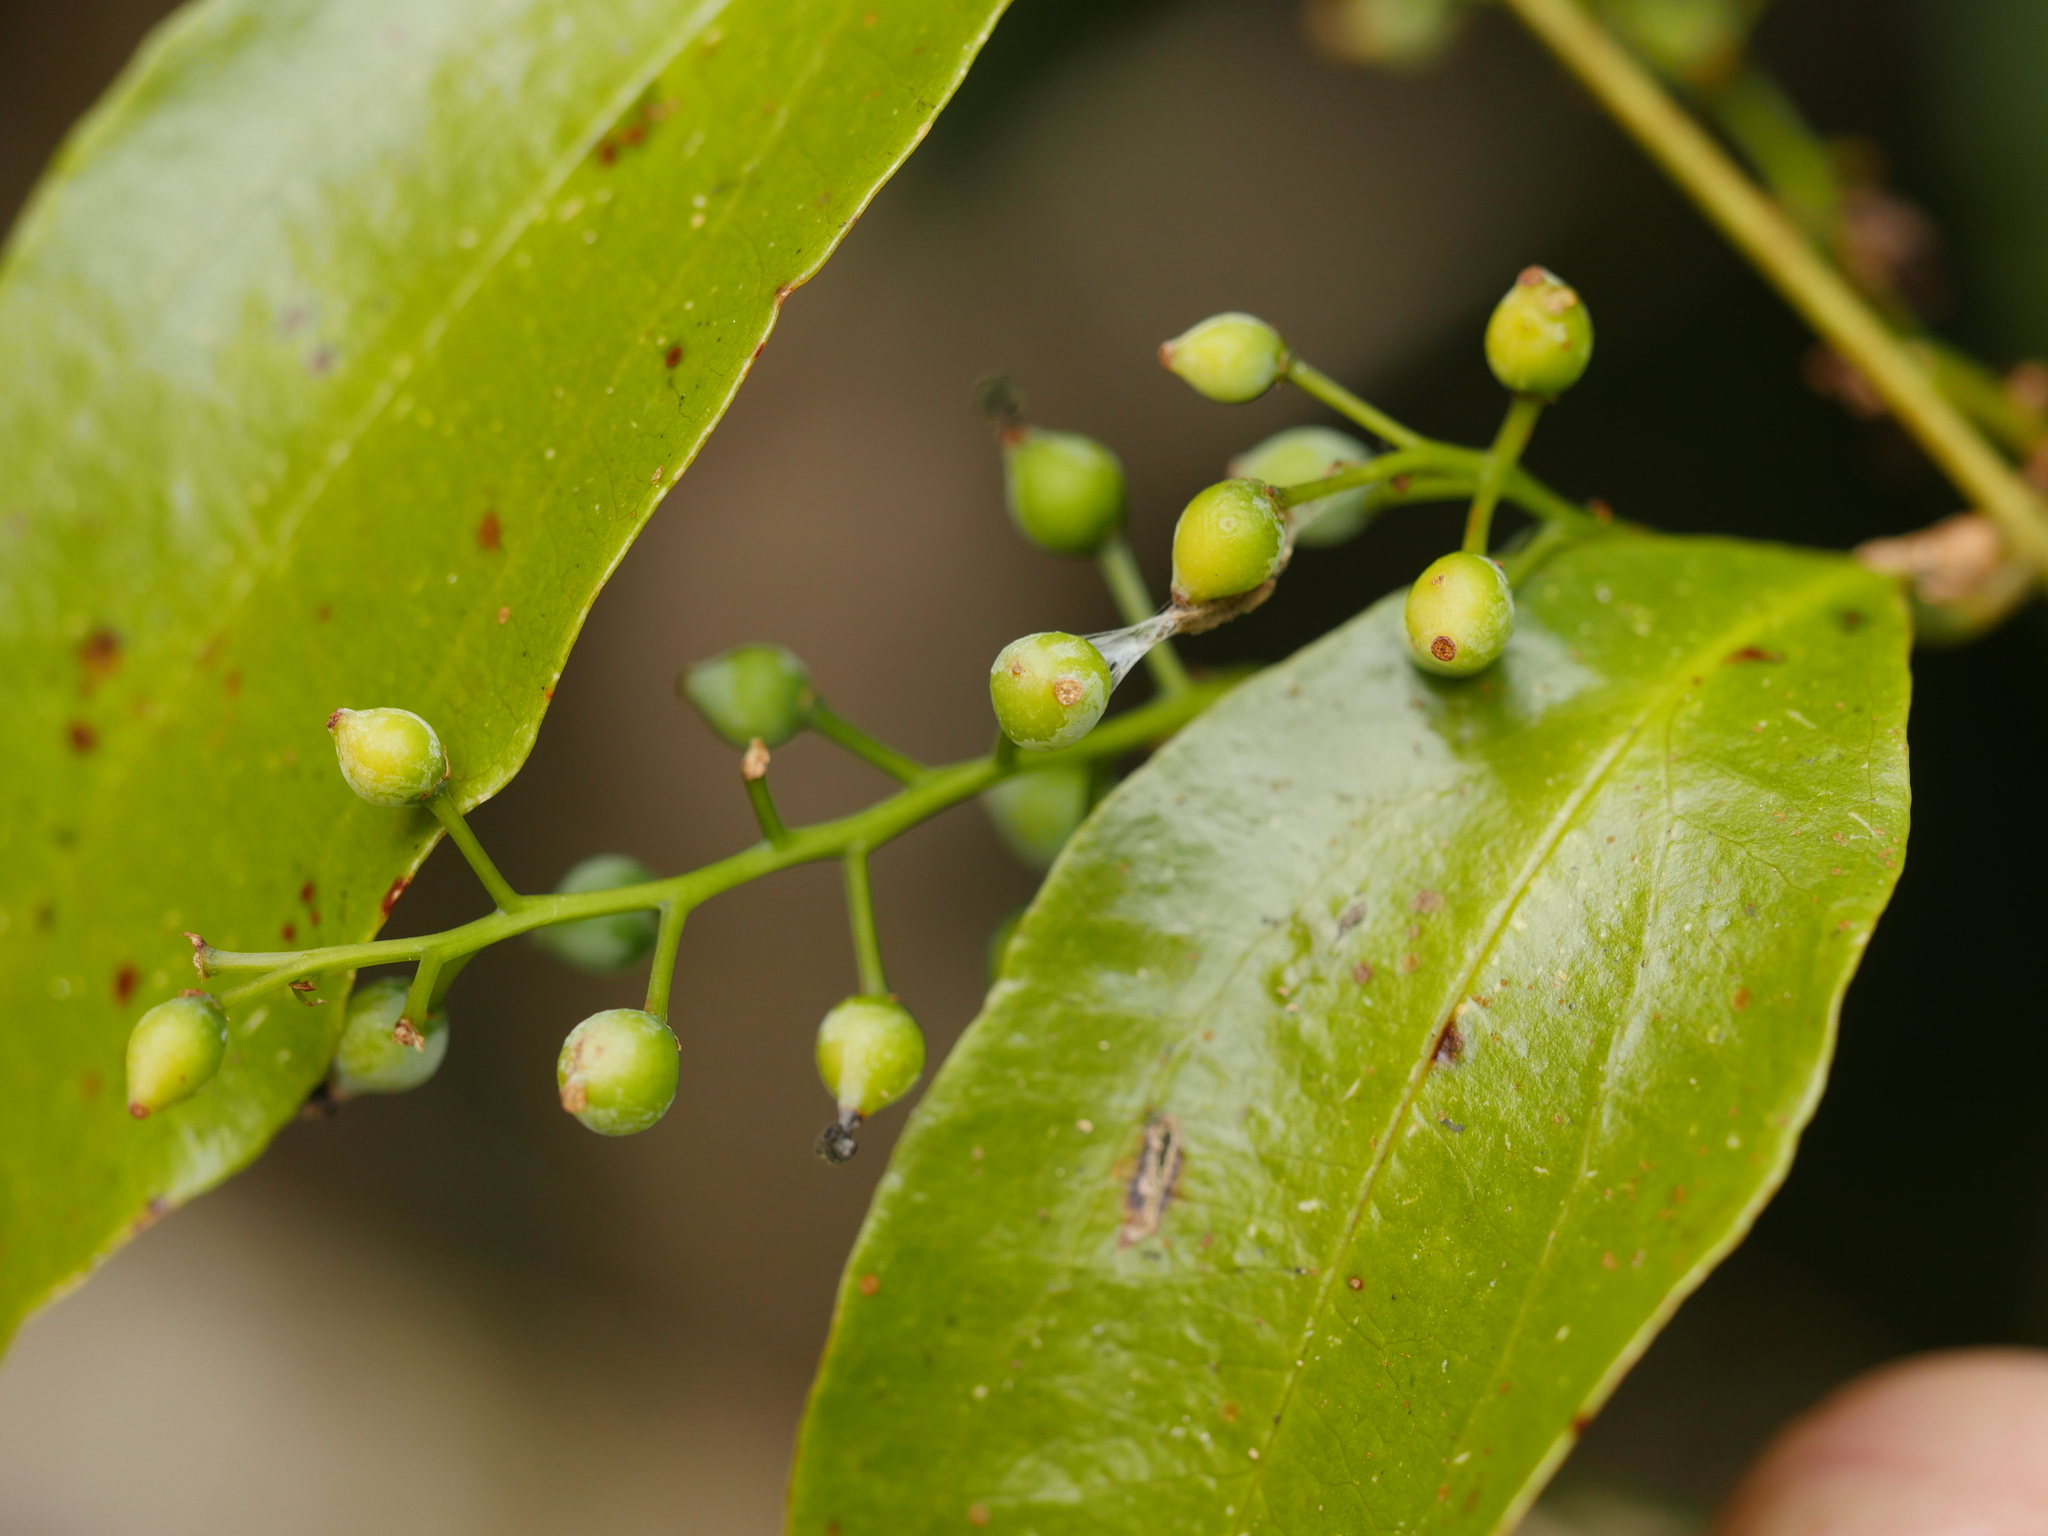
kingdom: Plantae
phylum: Tracheophyta
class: Liliopsida
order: Liliales
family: Ripogonaceae
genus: Ripogonum
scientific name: Ripogonum scandens
